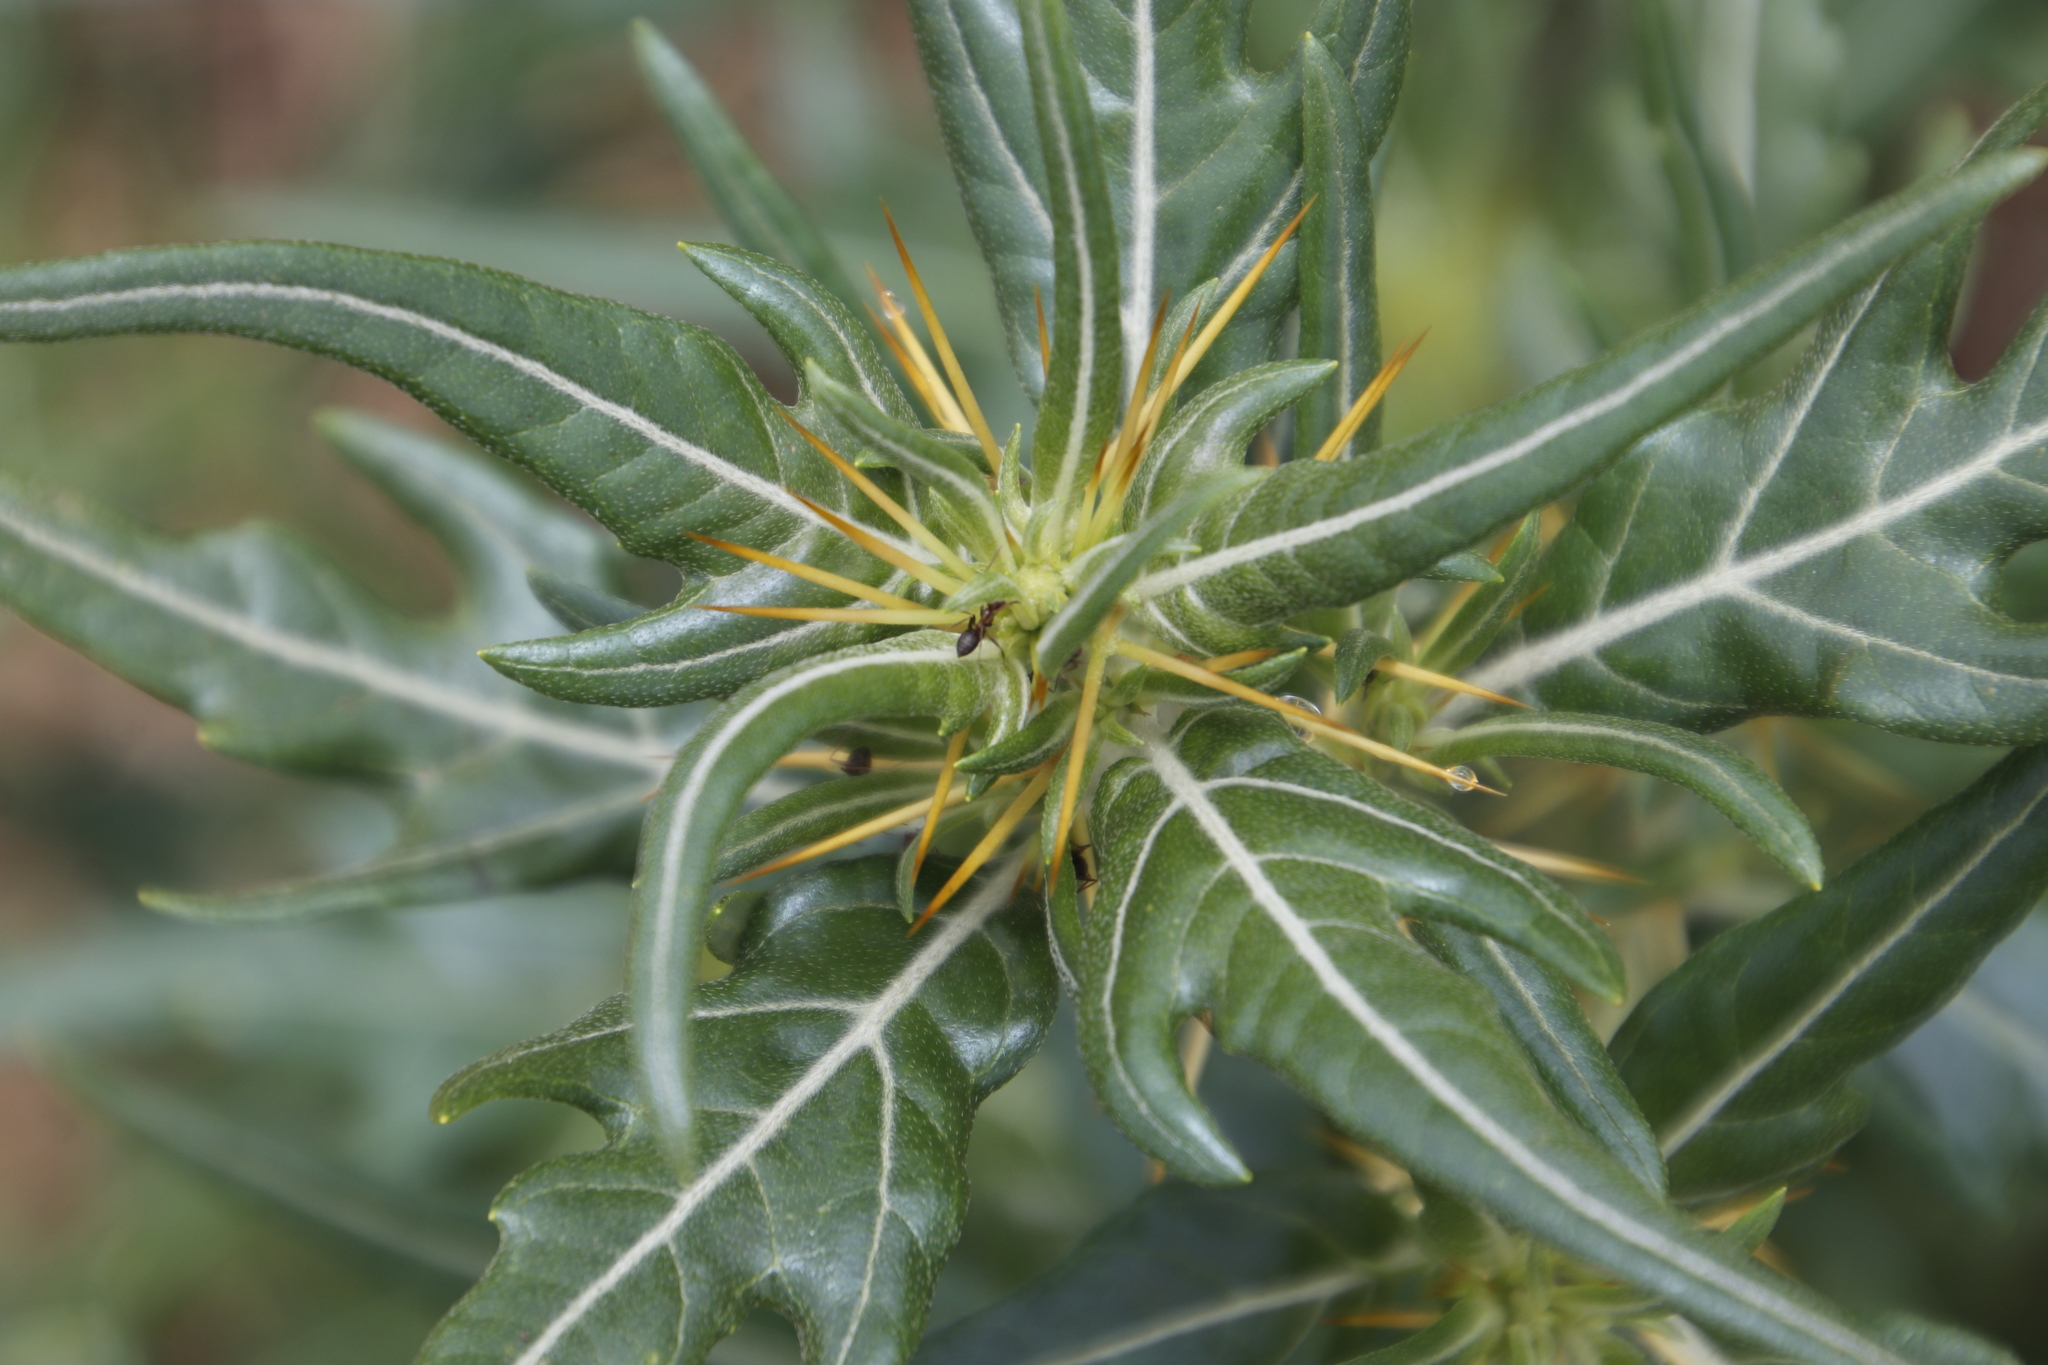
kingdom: Plantae
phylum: Tracheophyta
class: Magnoliopsida
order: Asterales
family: Asteraceae
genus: Xanthium
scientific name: Xanthium spinosum
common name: Spiny cocklebur
